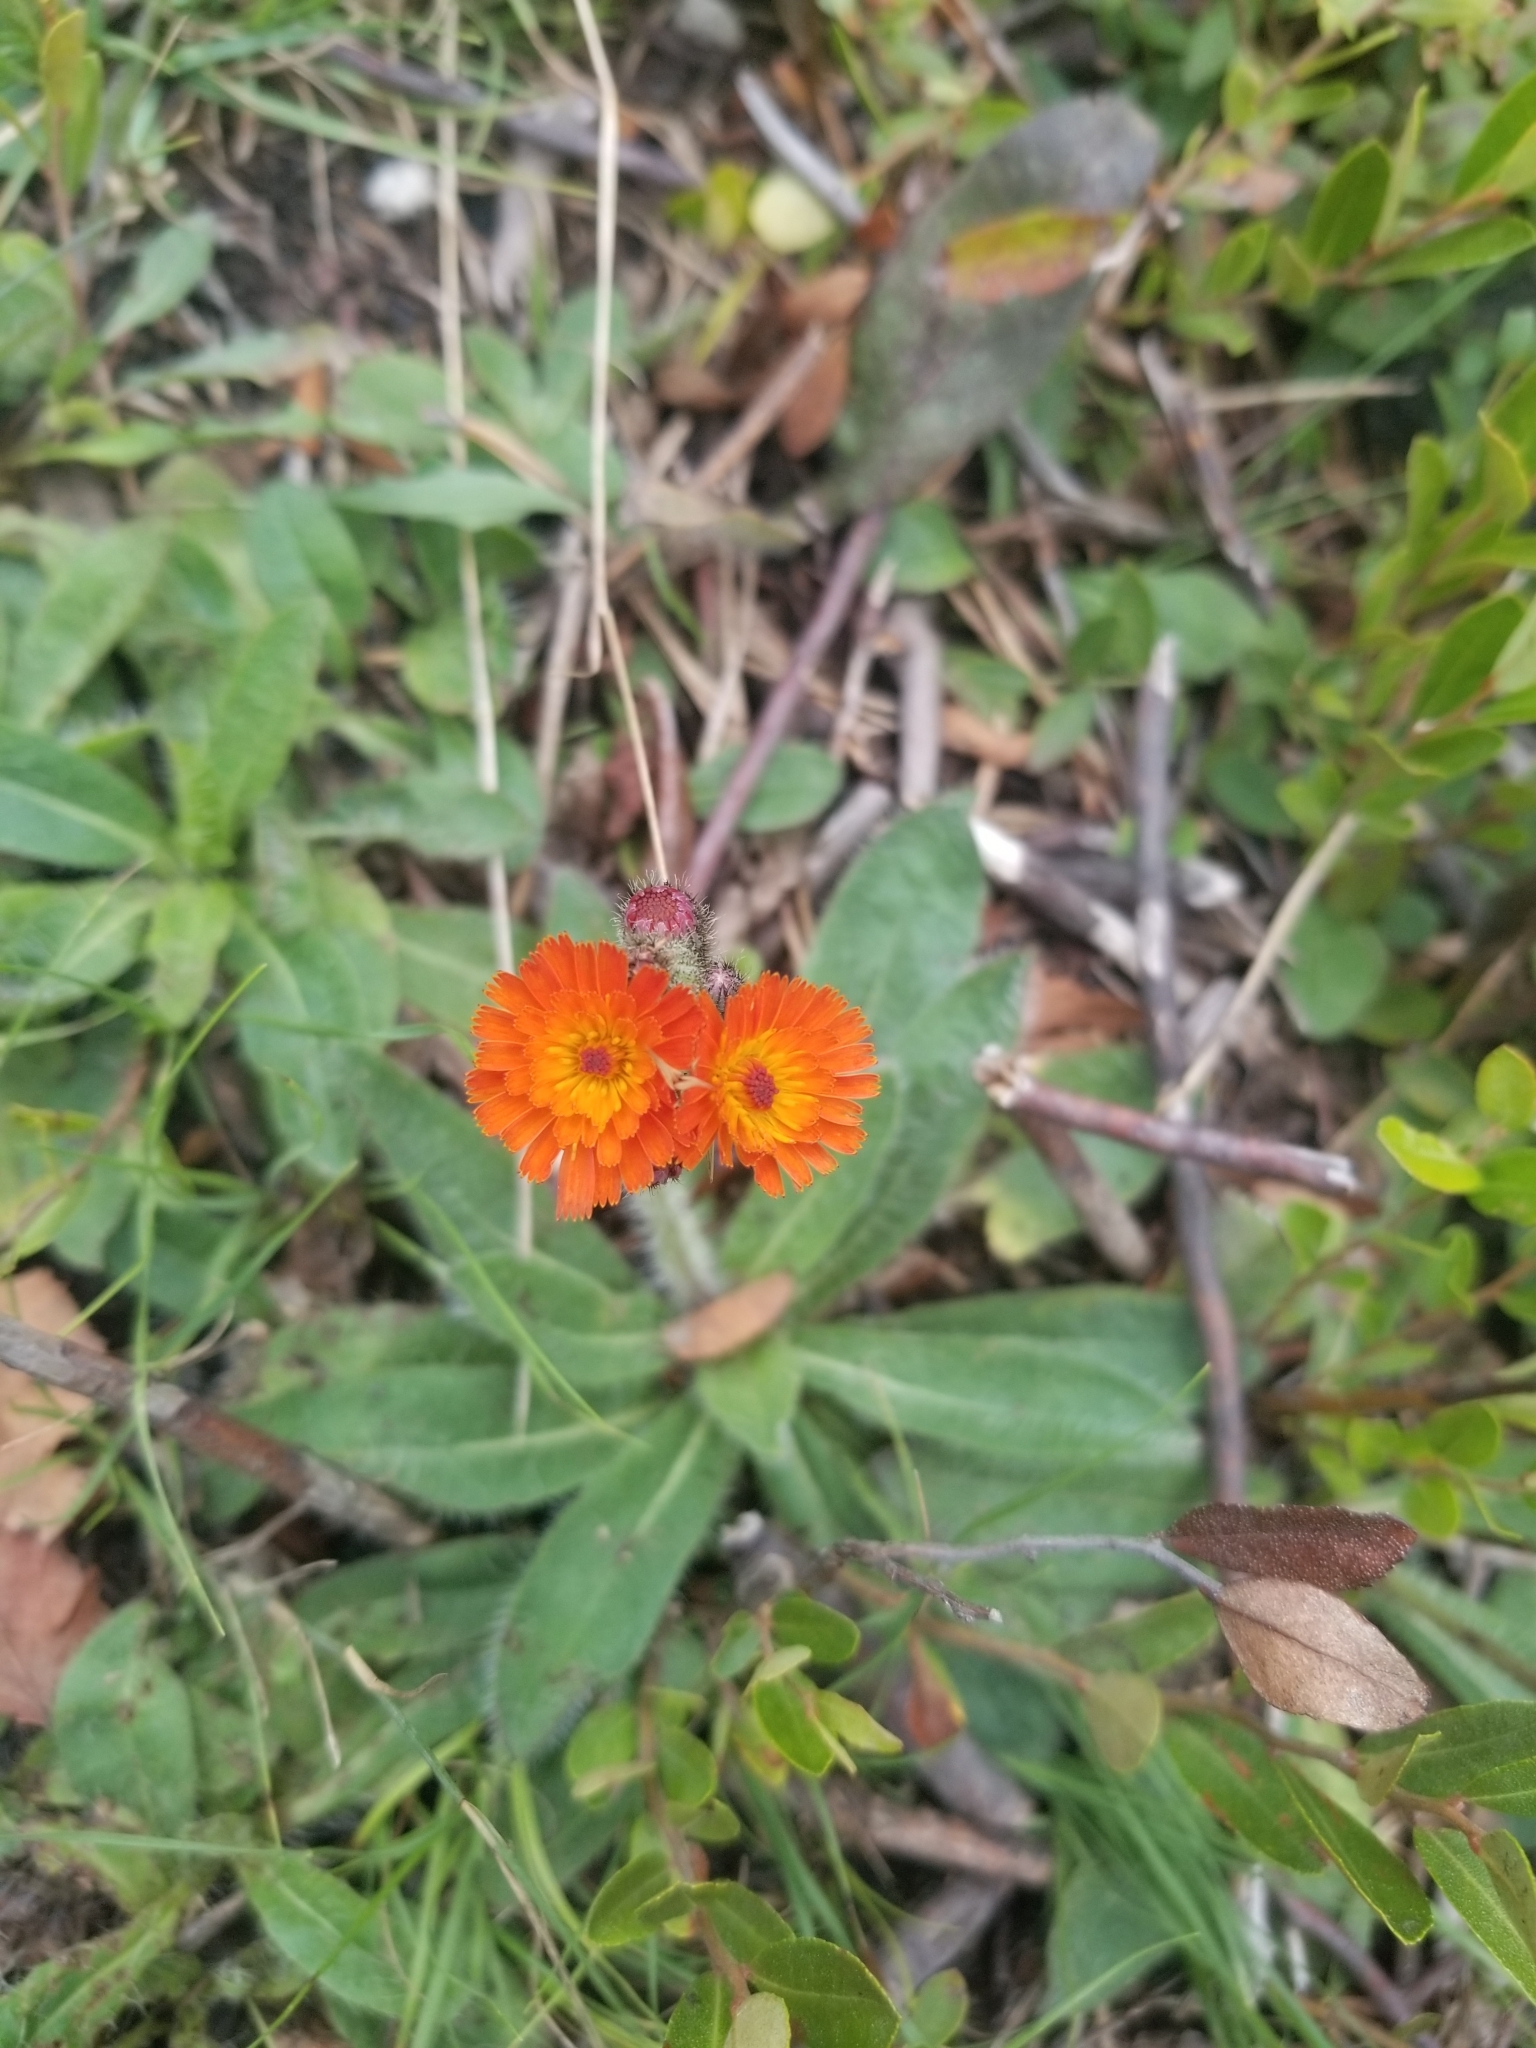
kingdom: Plantae
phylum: Tracheophyta
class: Magnoliopsida
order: Asterales
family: Asteraceae
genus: Pilosella
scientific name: Pilosella aurantiaca
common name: Fox-and-cubs
